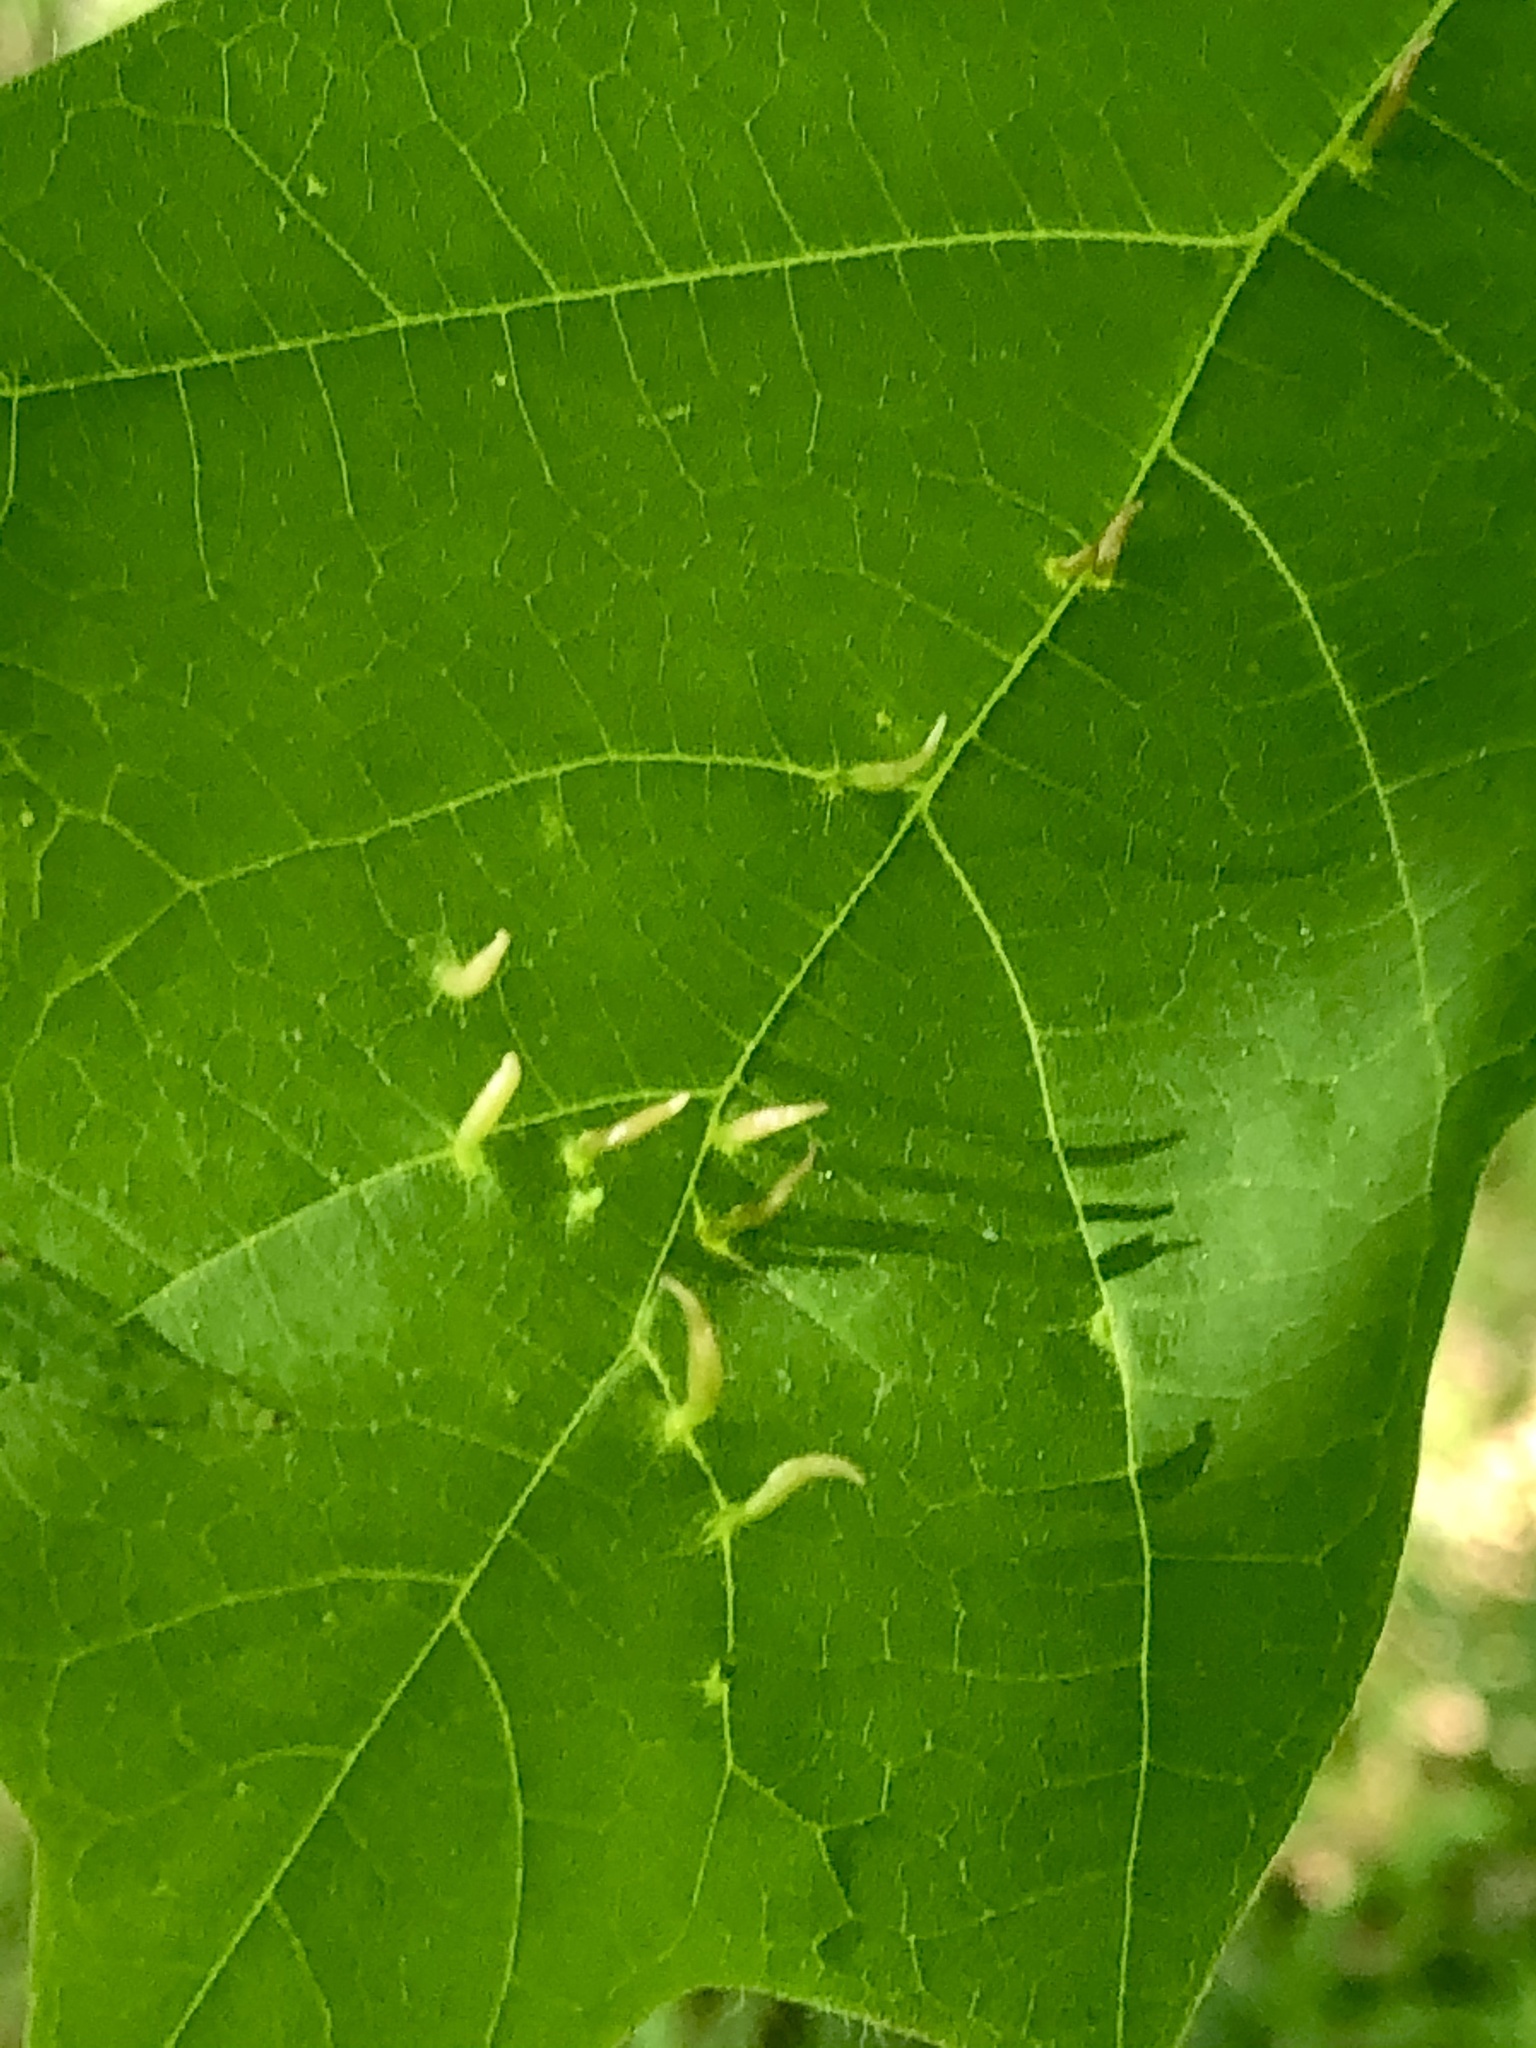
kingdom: Animalia
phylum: Arthropoda
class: Arachnida
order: Trombidiformes
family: Eriophyidae
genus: Vasates
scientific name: Vasates aceriscrumena
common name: Maple spindle gall mite
